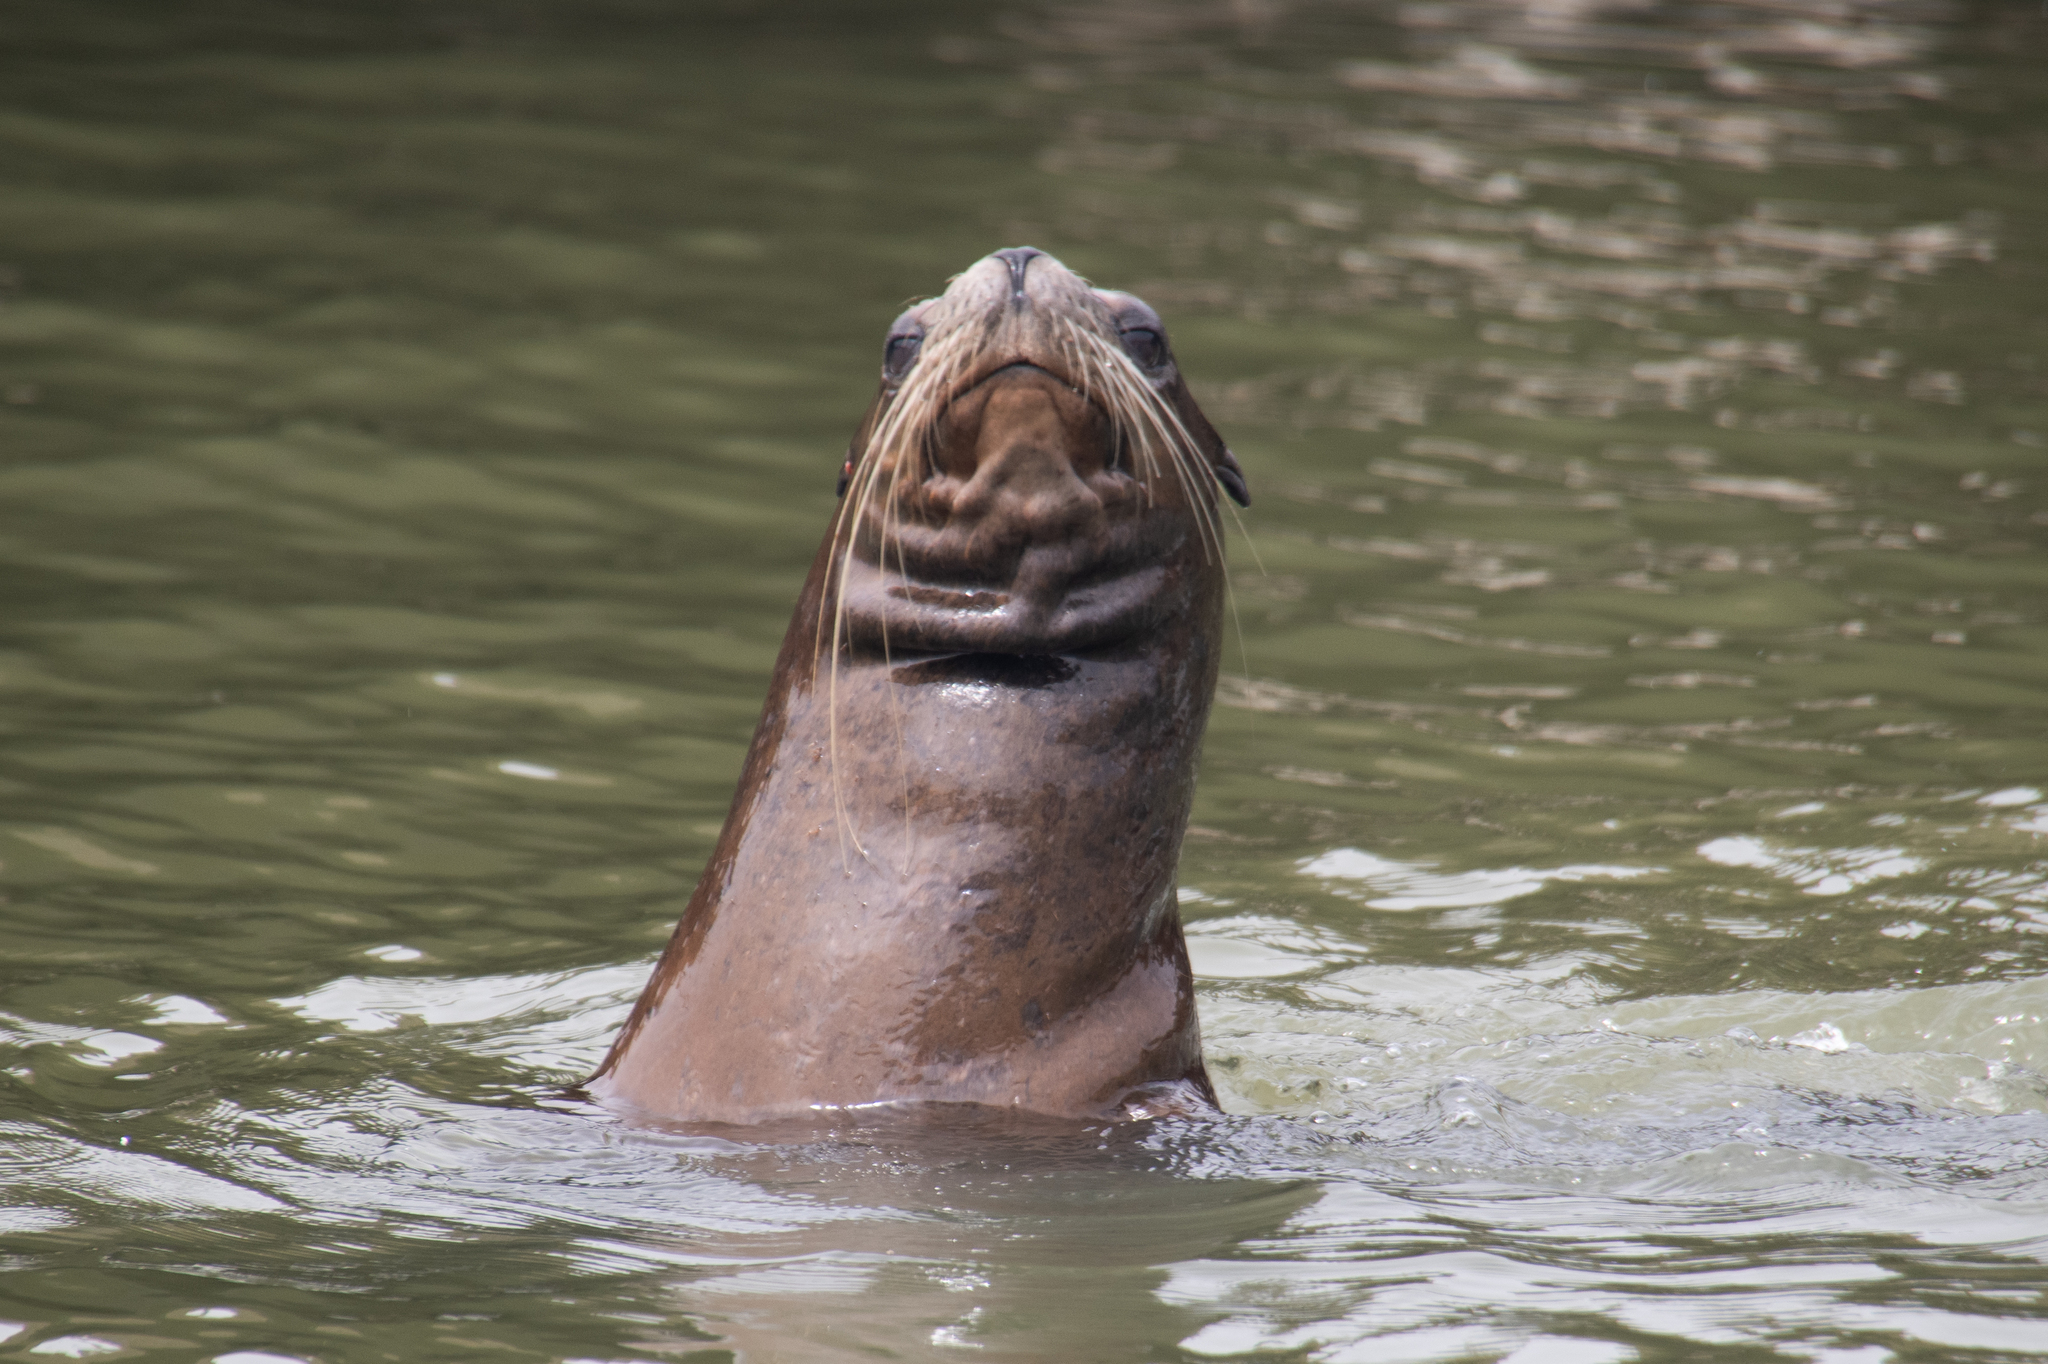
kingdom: Animalia
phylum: Chordata
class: Mammalia
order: Carnivora
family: Otariidae
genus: Zalophus
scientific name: Zalophus californianus
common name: California sea lion
